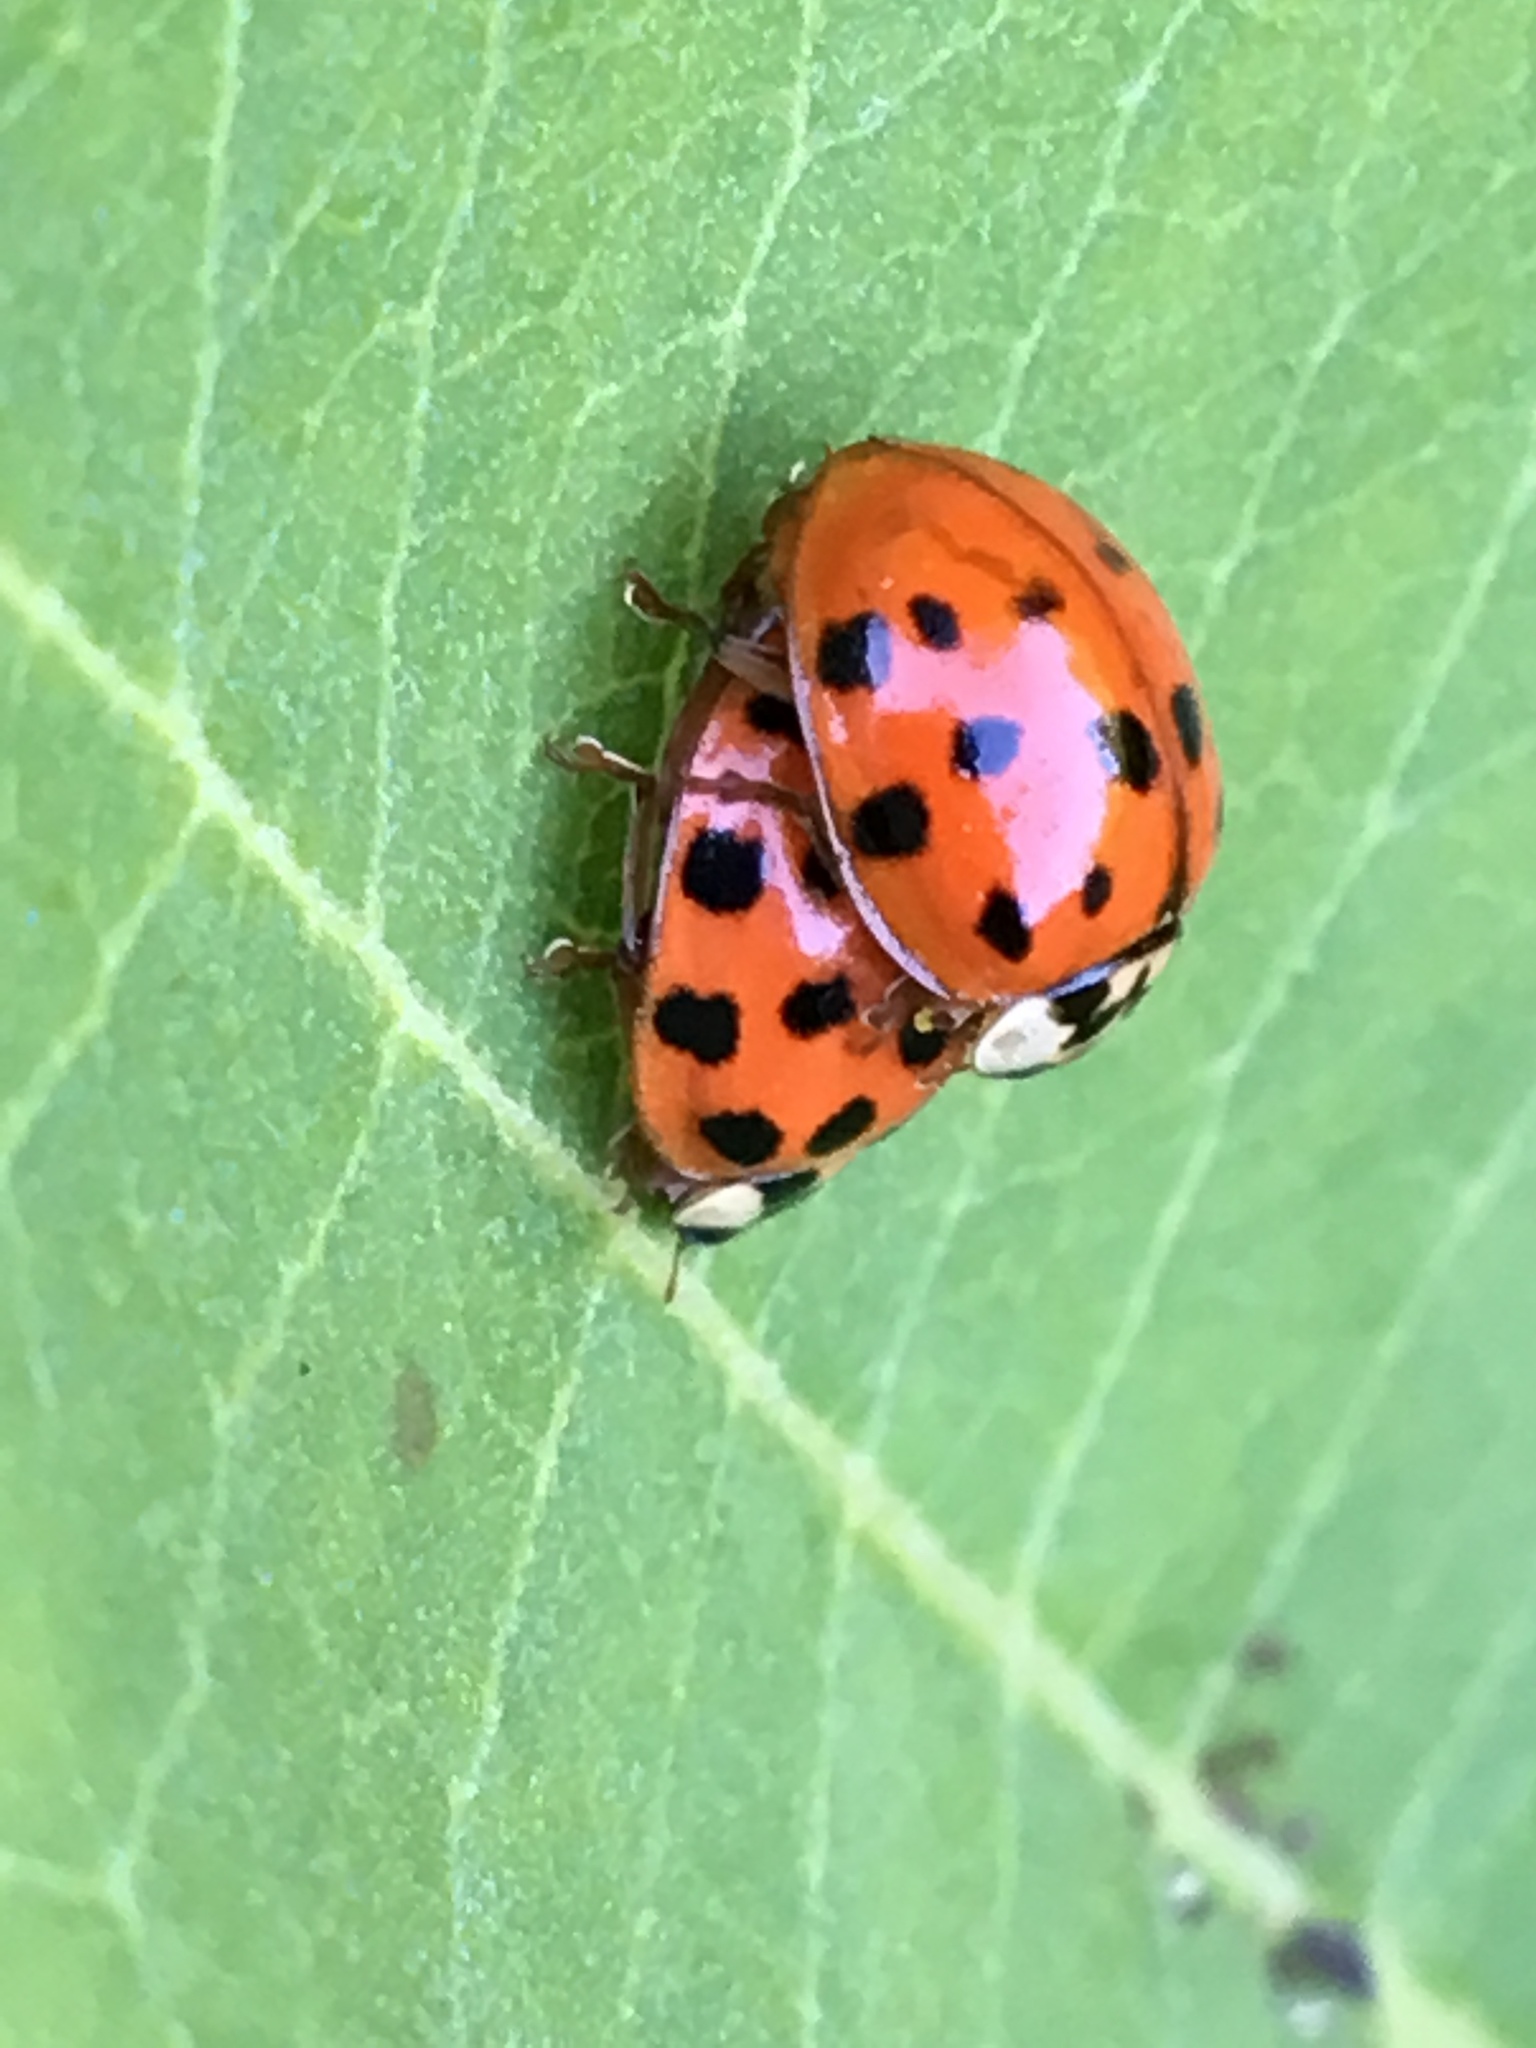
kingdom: Animalia
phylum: Arthropoda
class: Insecta
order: Coleoptera
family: Coccinellidae
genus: Harmonia
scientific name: Harmonia axyridis
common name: Harlequin ladybird
